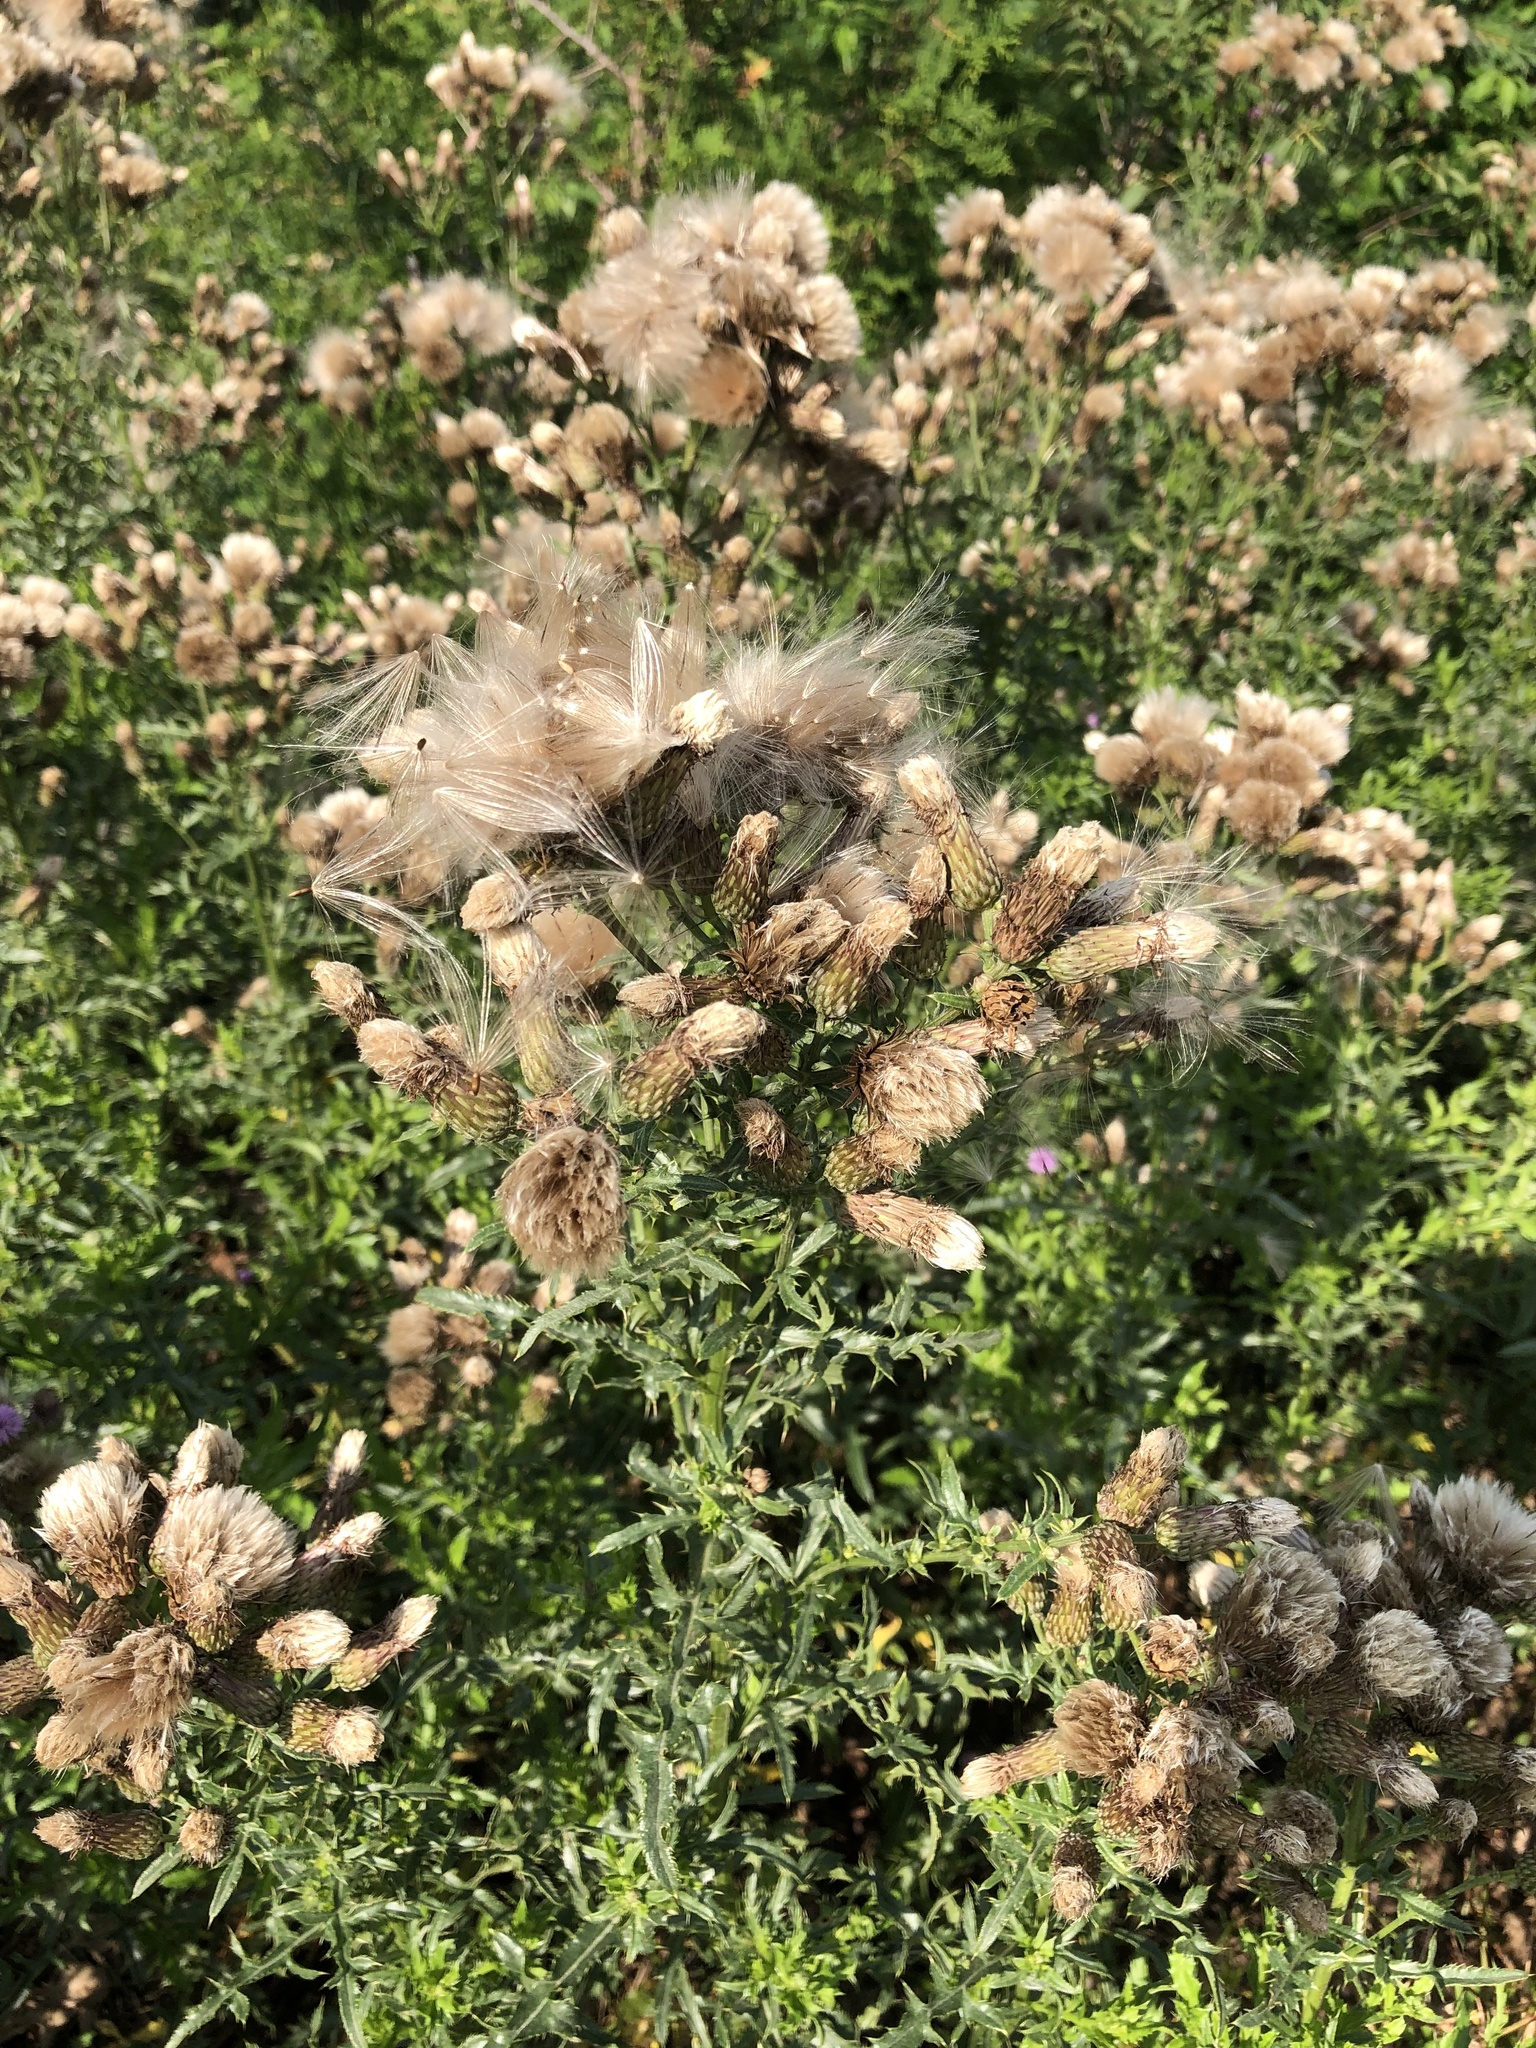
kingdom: Plantae
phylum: Tracheophyta
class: Magnoliopsida
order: Asterales
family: Asteraceae
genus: Cirsium
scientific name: Cirsium arvense
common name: Creeping thistle
